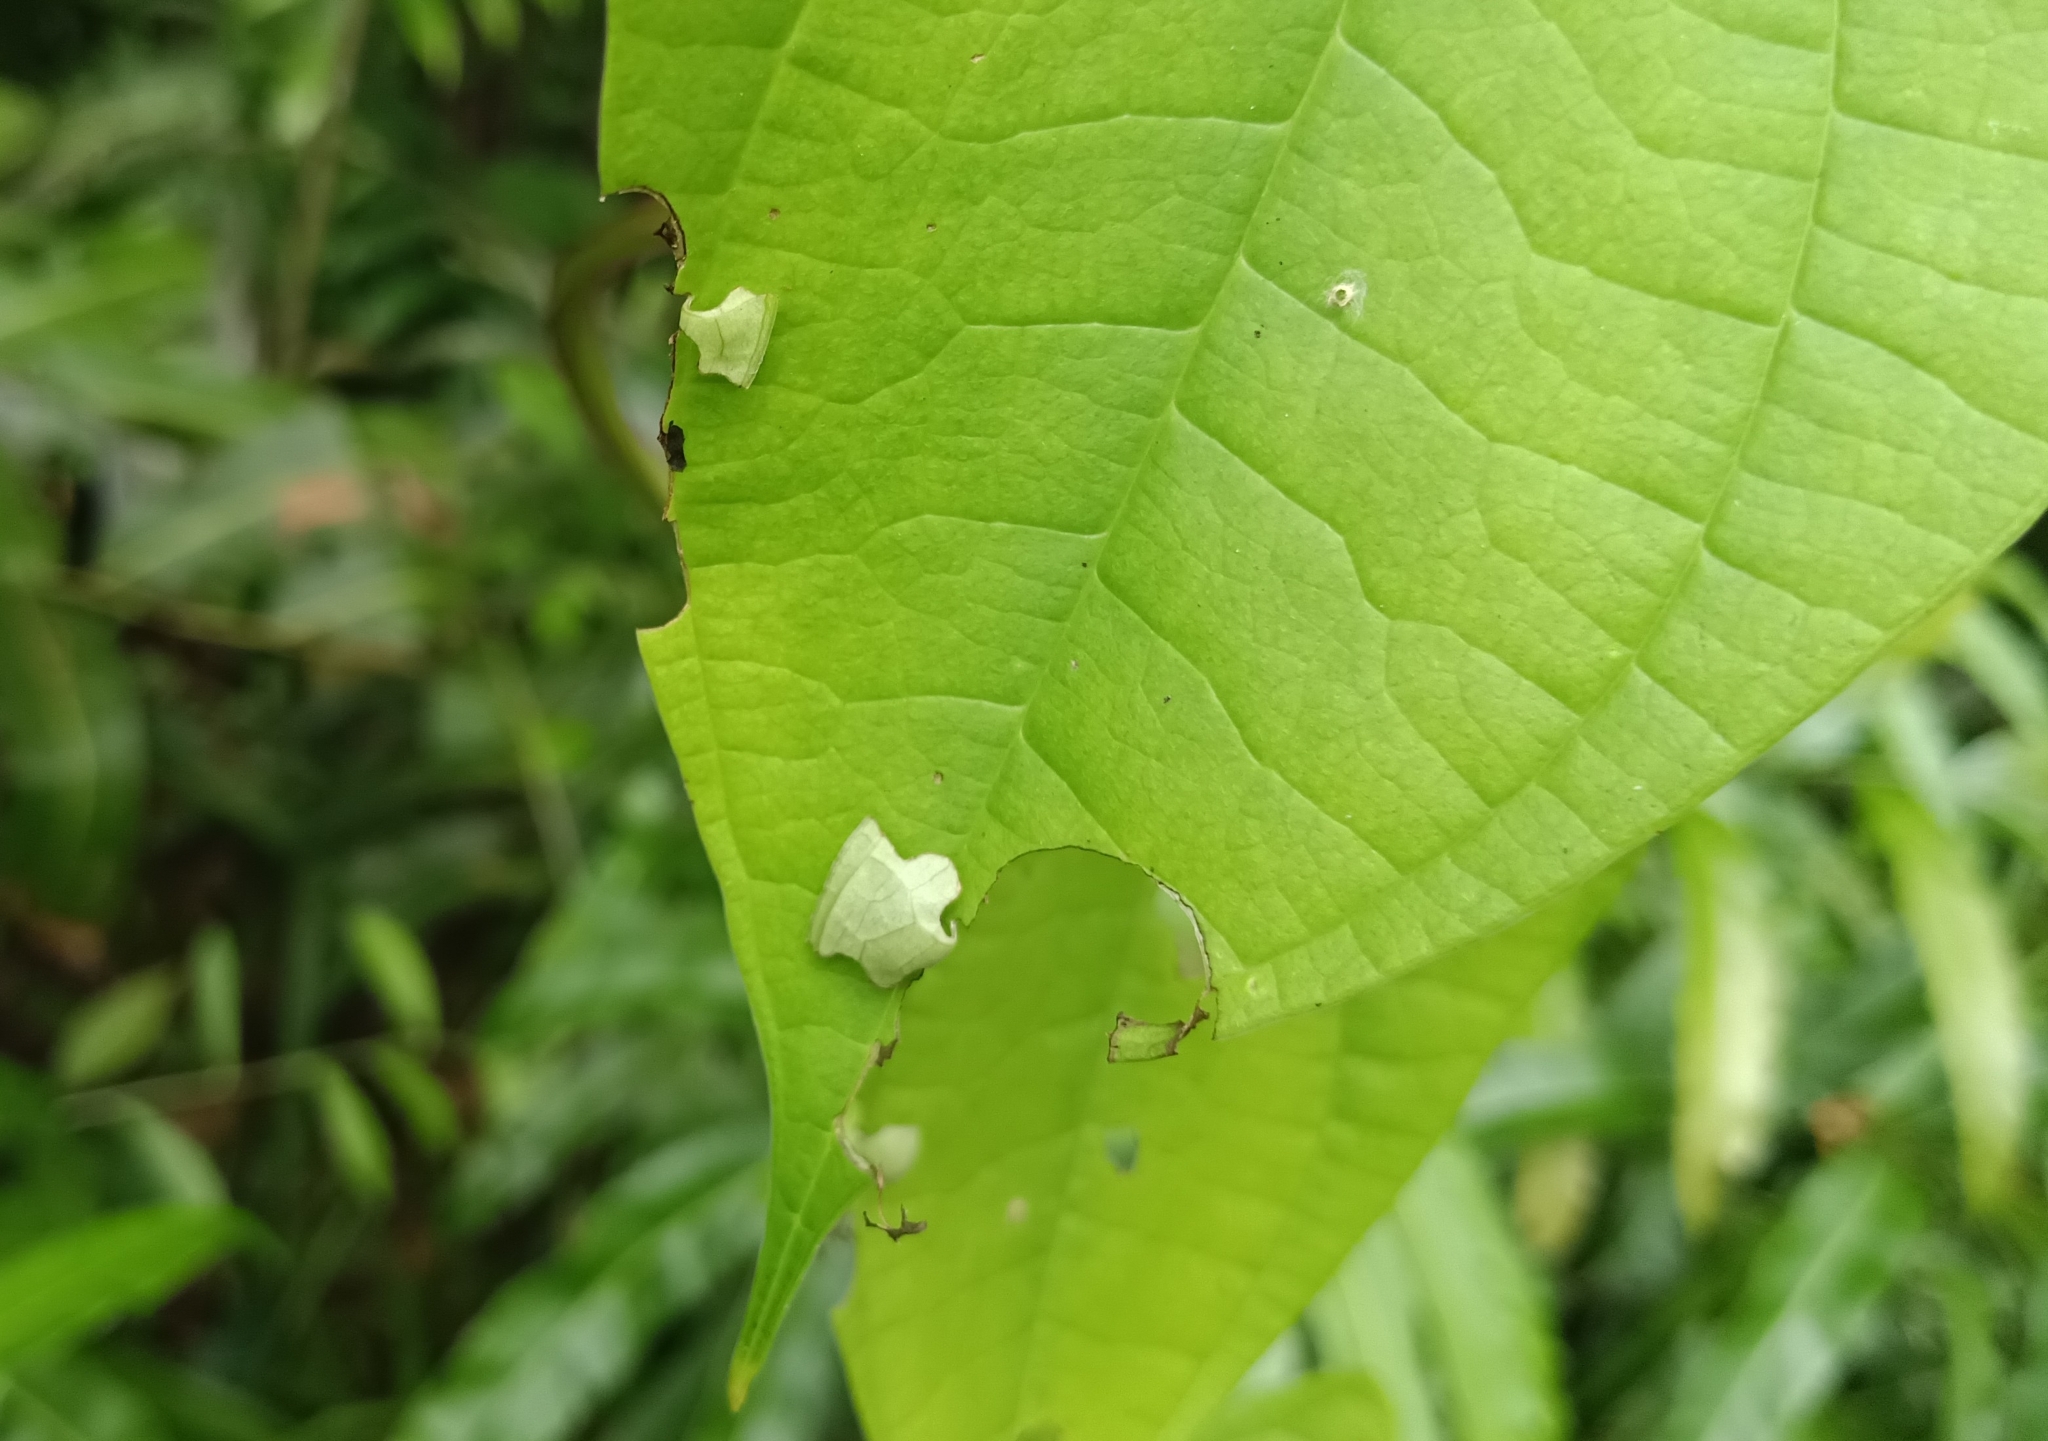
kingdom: Animalia
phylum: Arthropoda
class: Insecta
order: Lepidoptera
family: Hesperiidae
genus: Tagiades
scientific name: Tagiades litigiosa
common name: Water snow flat
